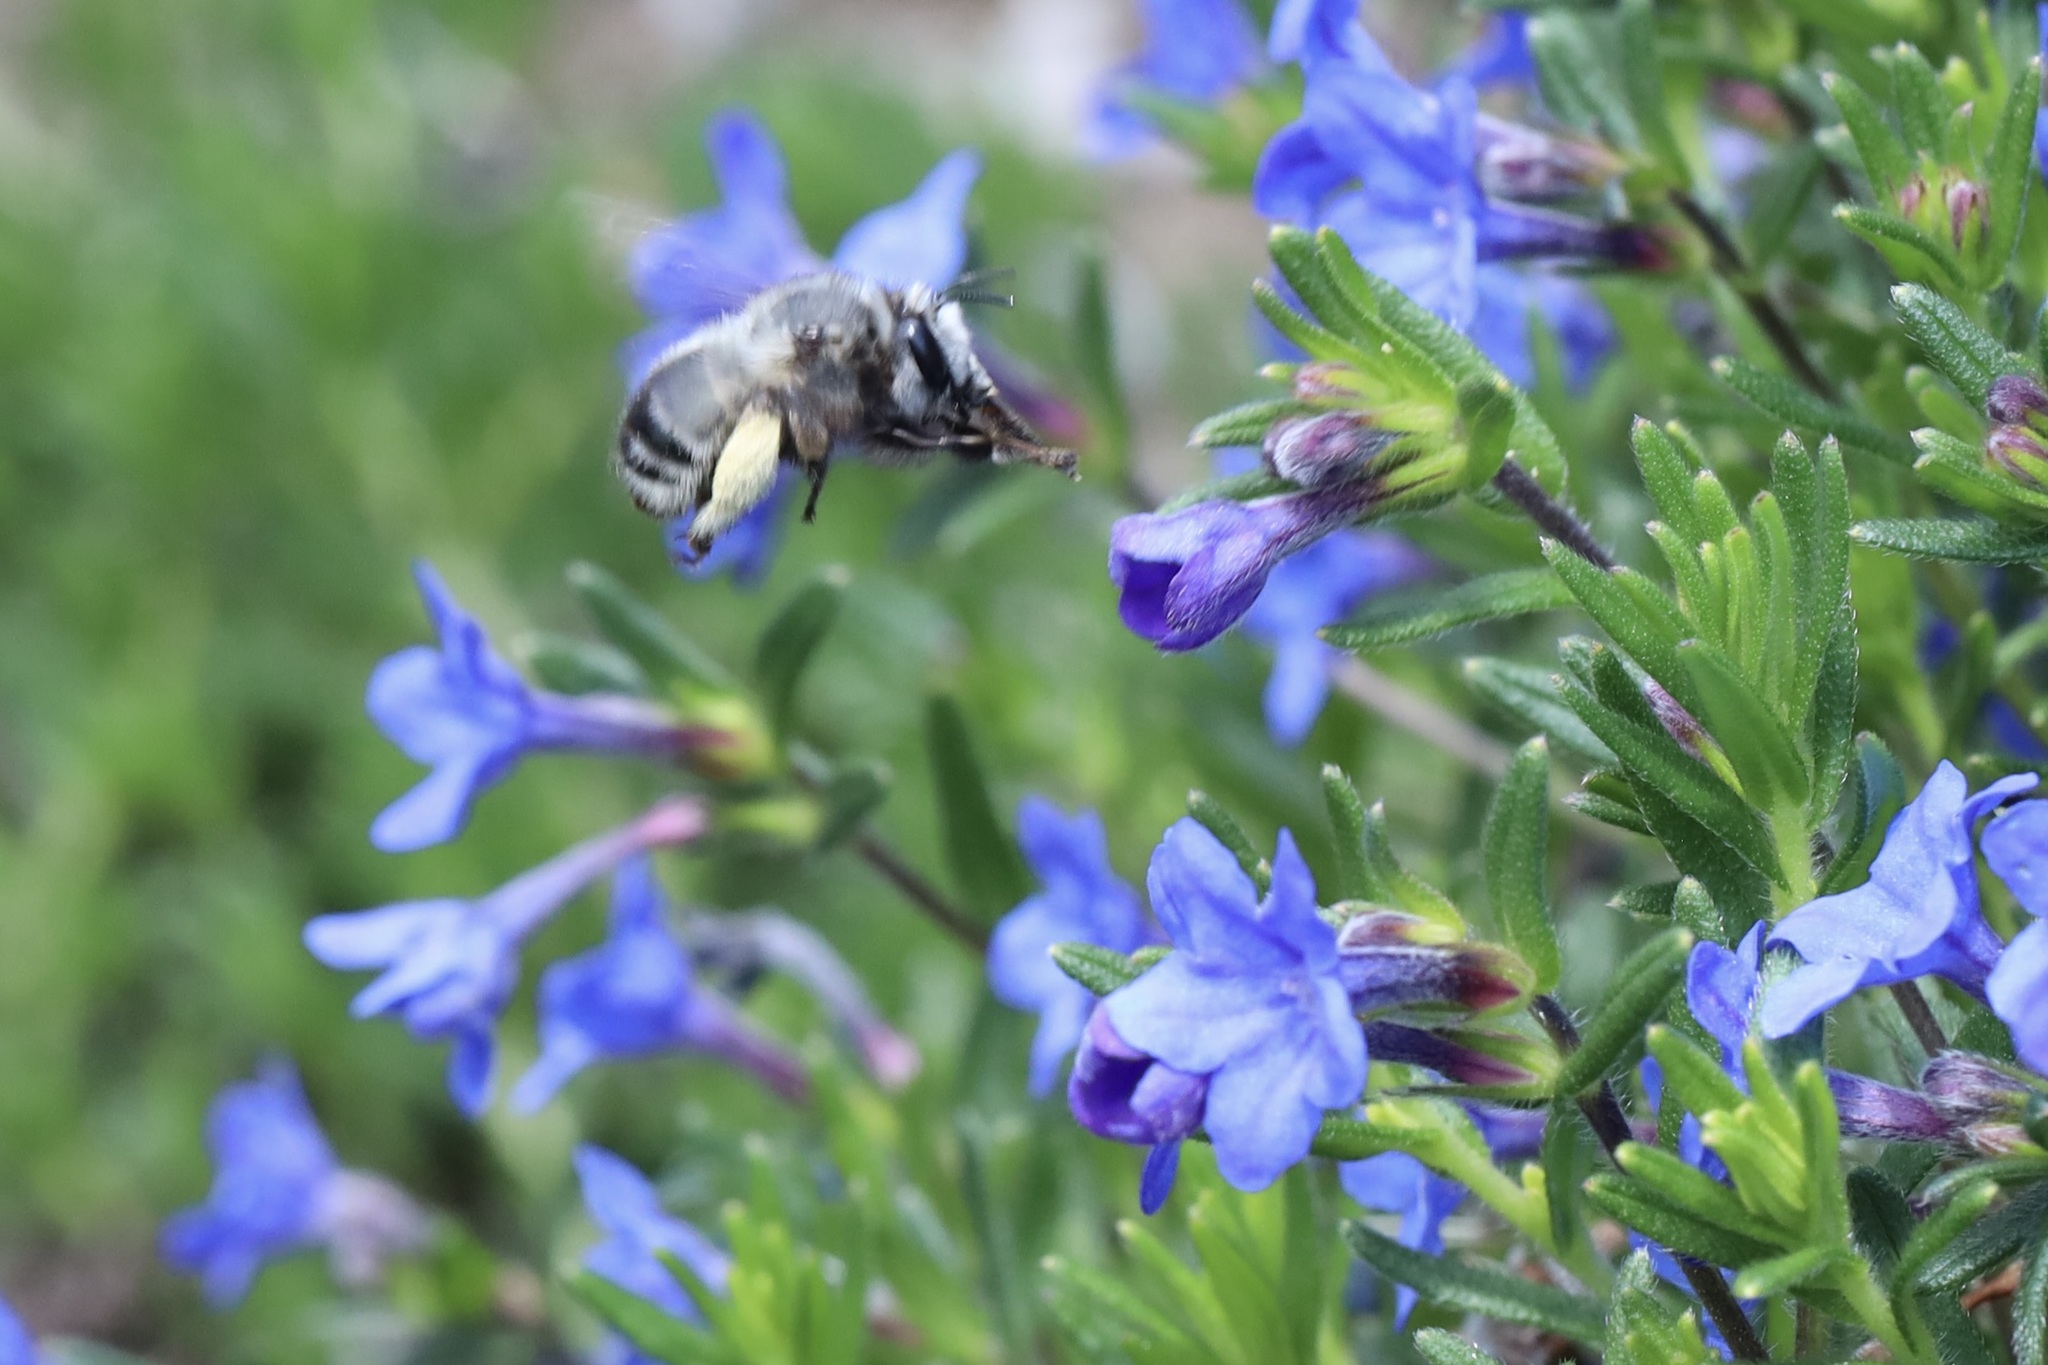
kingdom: Animalia
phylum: Arthropoda
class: Insecta
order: Hymenoptera
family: Apidae
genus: Anthophora
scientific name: Anthophora pacifica
